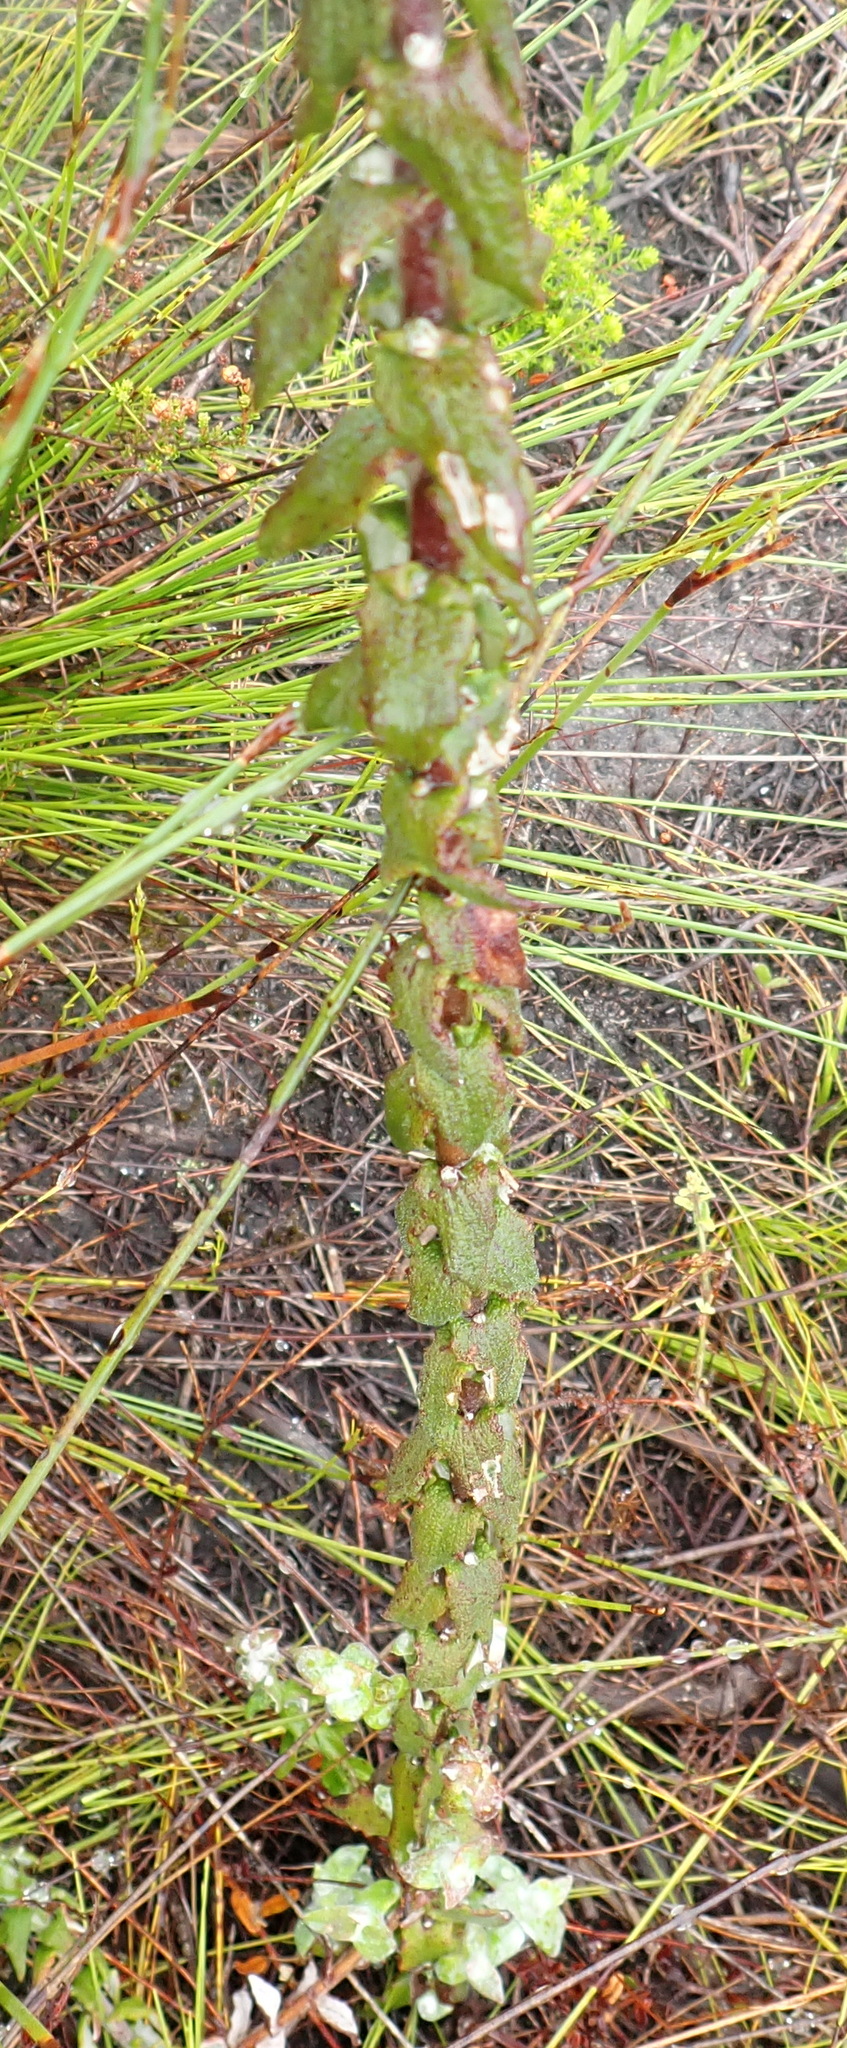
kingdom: Plantae
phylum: Tracheophyta
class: Magnoliopsida
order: Asterales
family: Asteraceae
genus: Helichrysum
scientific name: Helichrysum felinum
